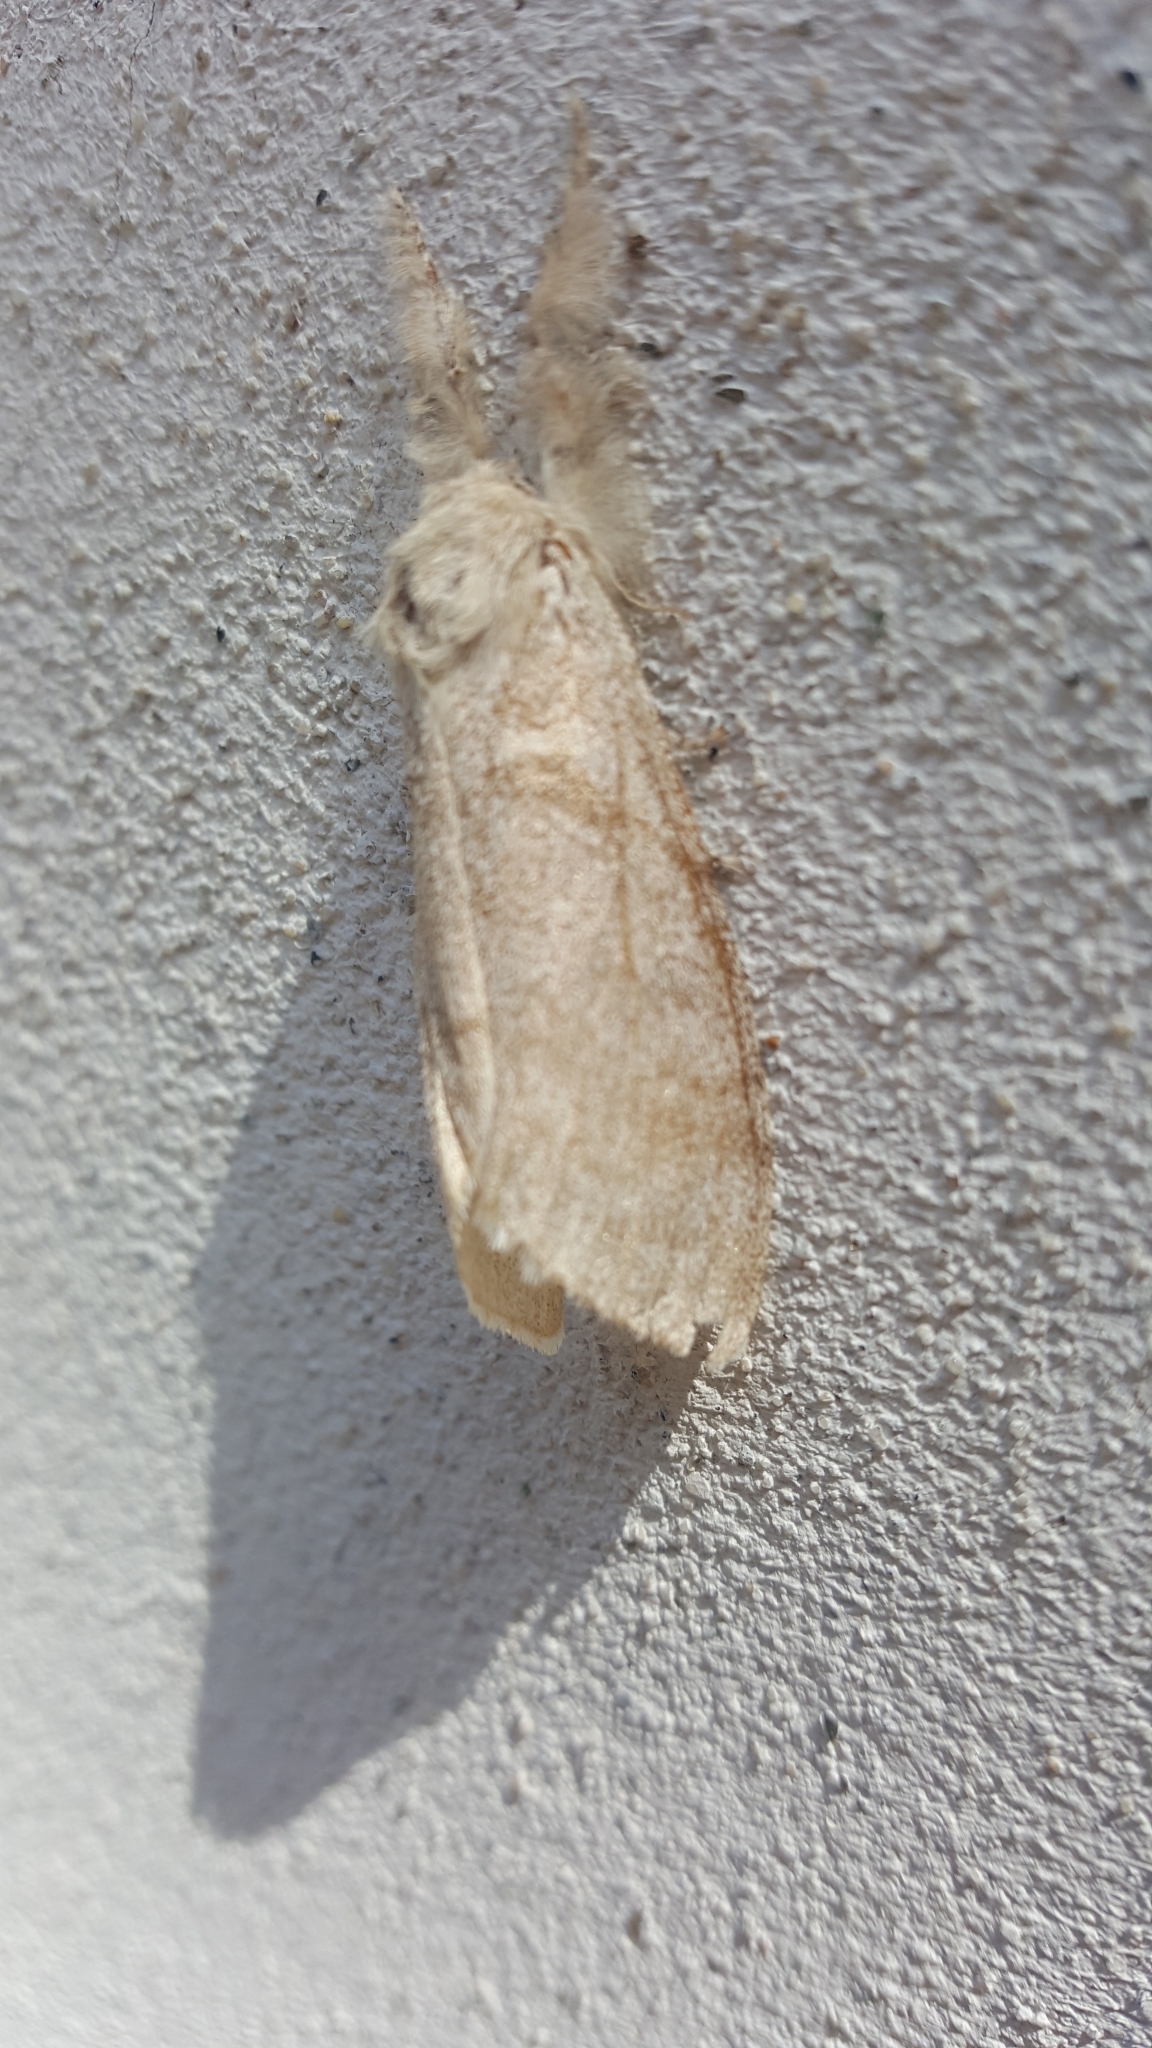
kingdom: Animalia
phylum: Arthropoda
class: Insecta
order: Lepidoptera
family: Erebidae
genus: Calliteara
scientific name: Calliteara pudibunda
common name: Pale tussock
